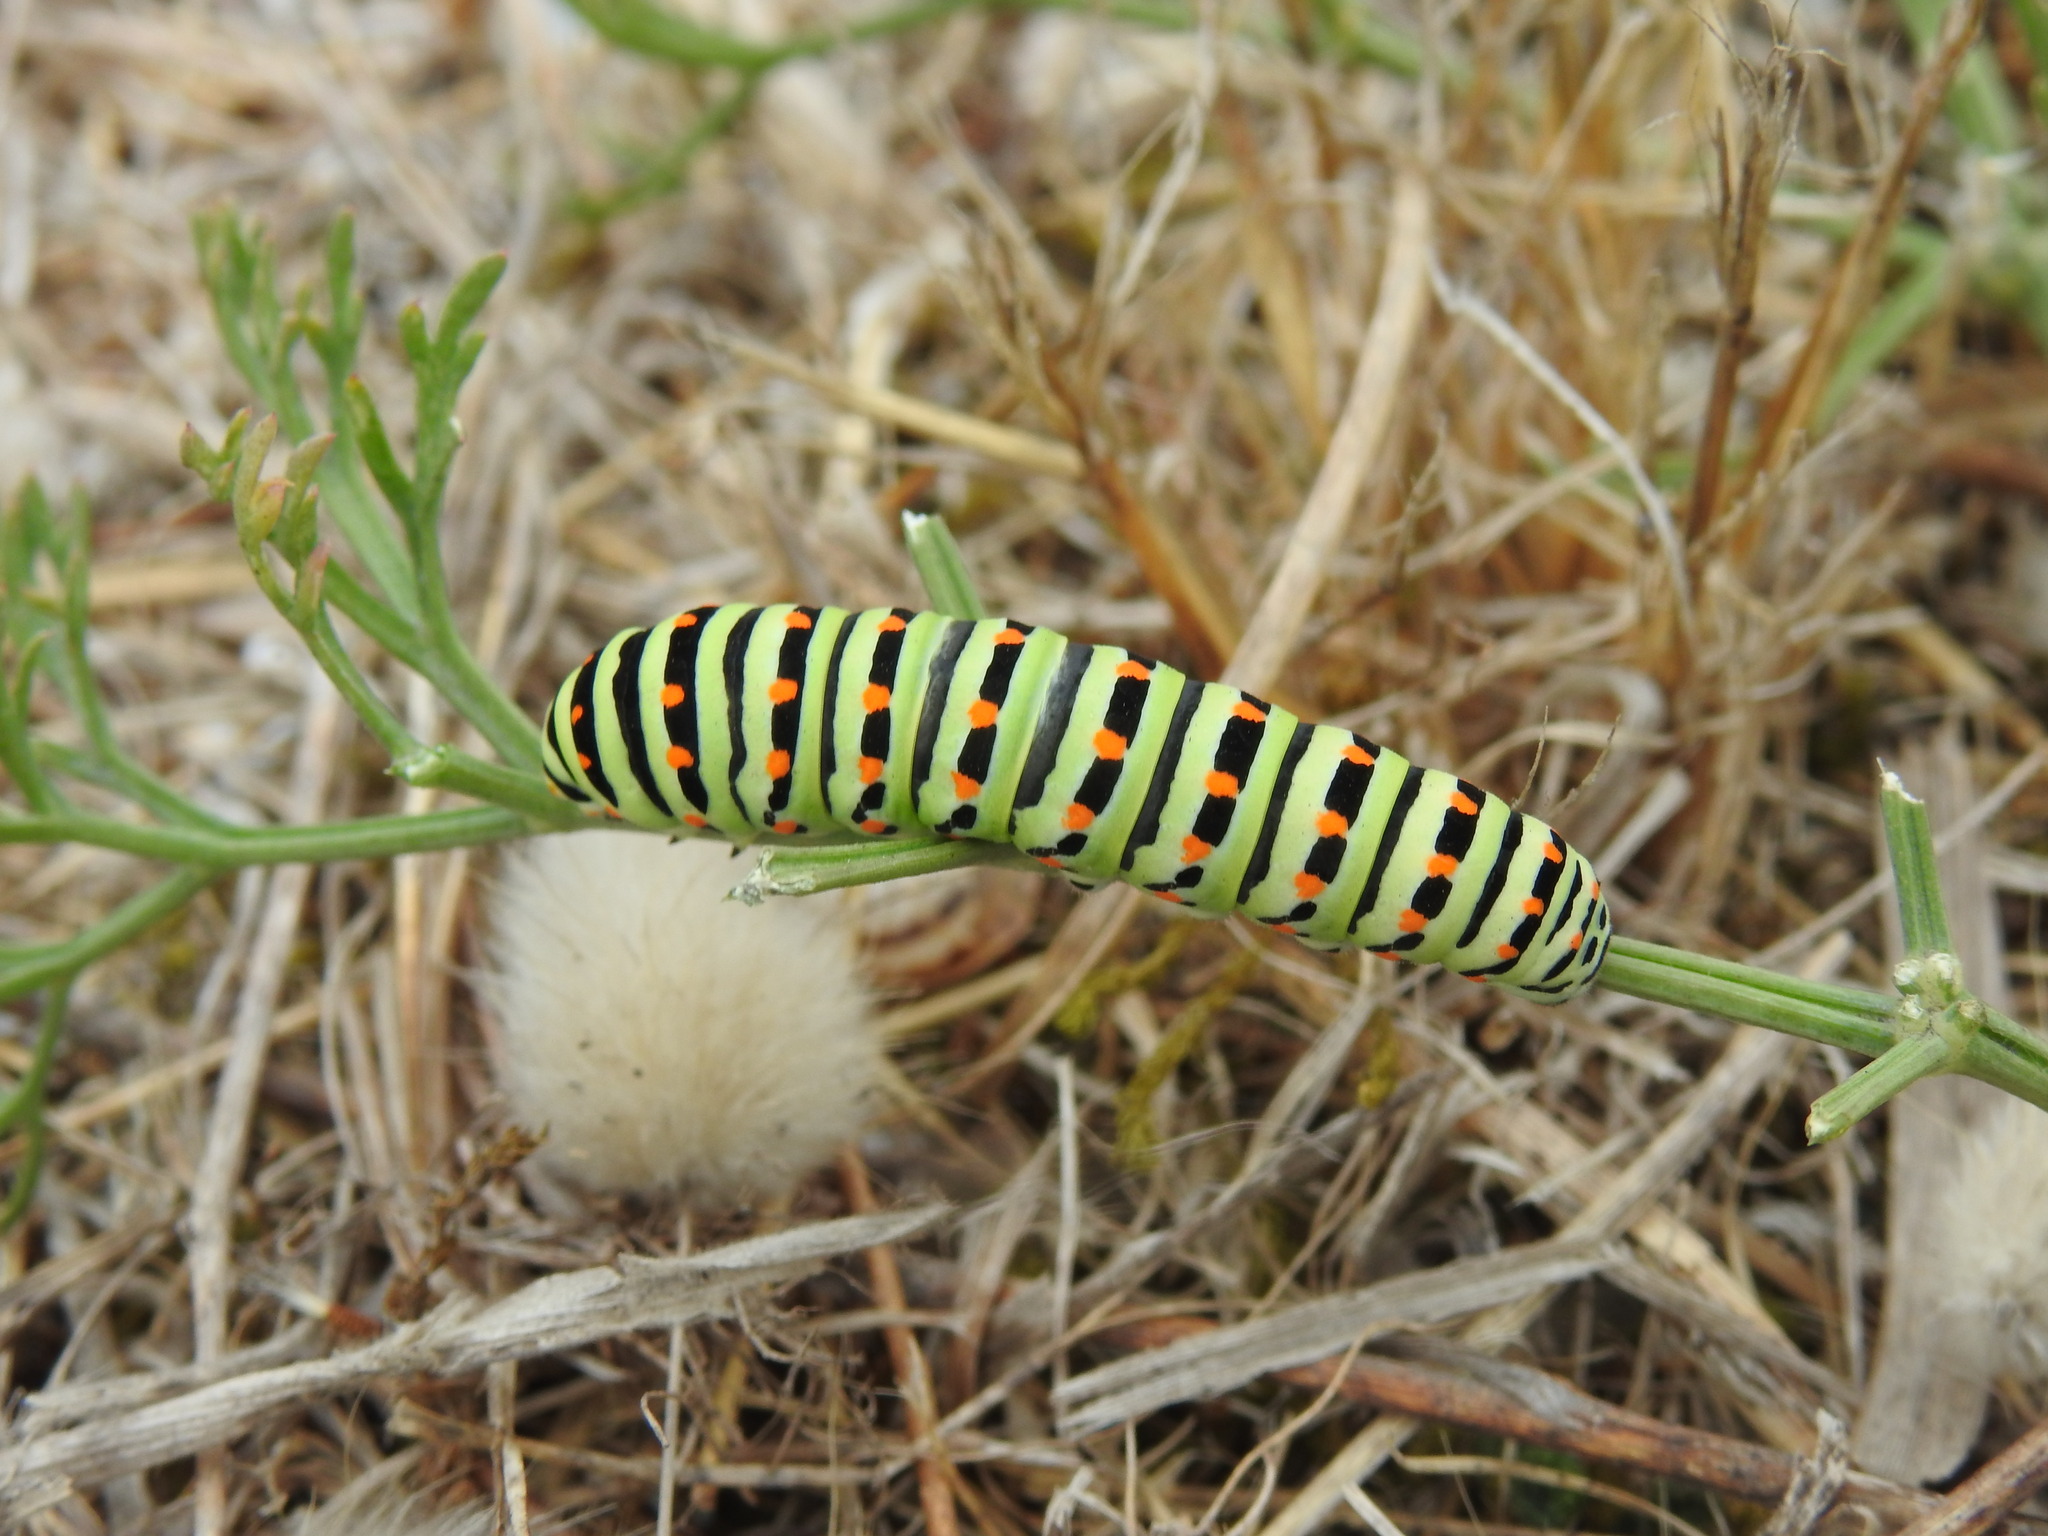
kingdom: Animalia
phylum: Arthropoda
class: Insecta
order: Lepidoptera
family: Papilionidae
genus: Papilio
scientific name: Papilio machaon
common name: Swallowtail
